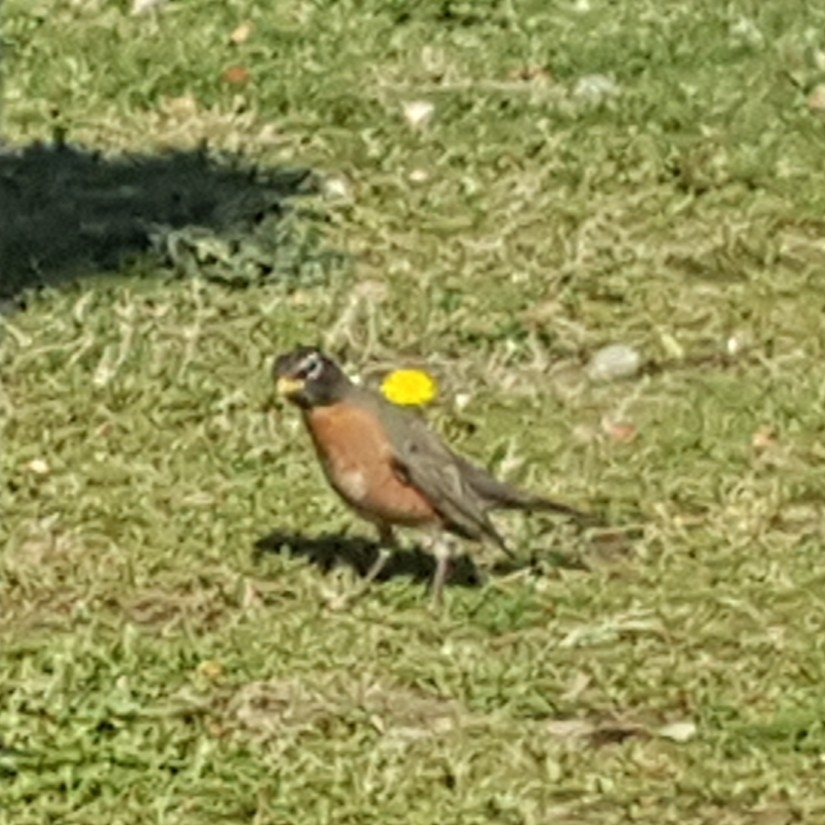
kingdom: Animalia
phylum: Chordata
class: Aves
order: Passeriformes
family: Turdidae
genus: Turdus
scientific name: Turdus migratorius
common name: American robin
